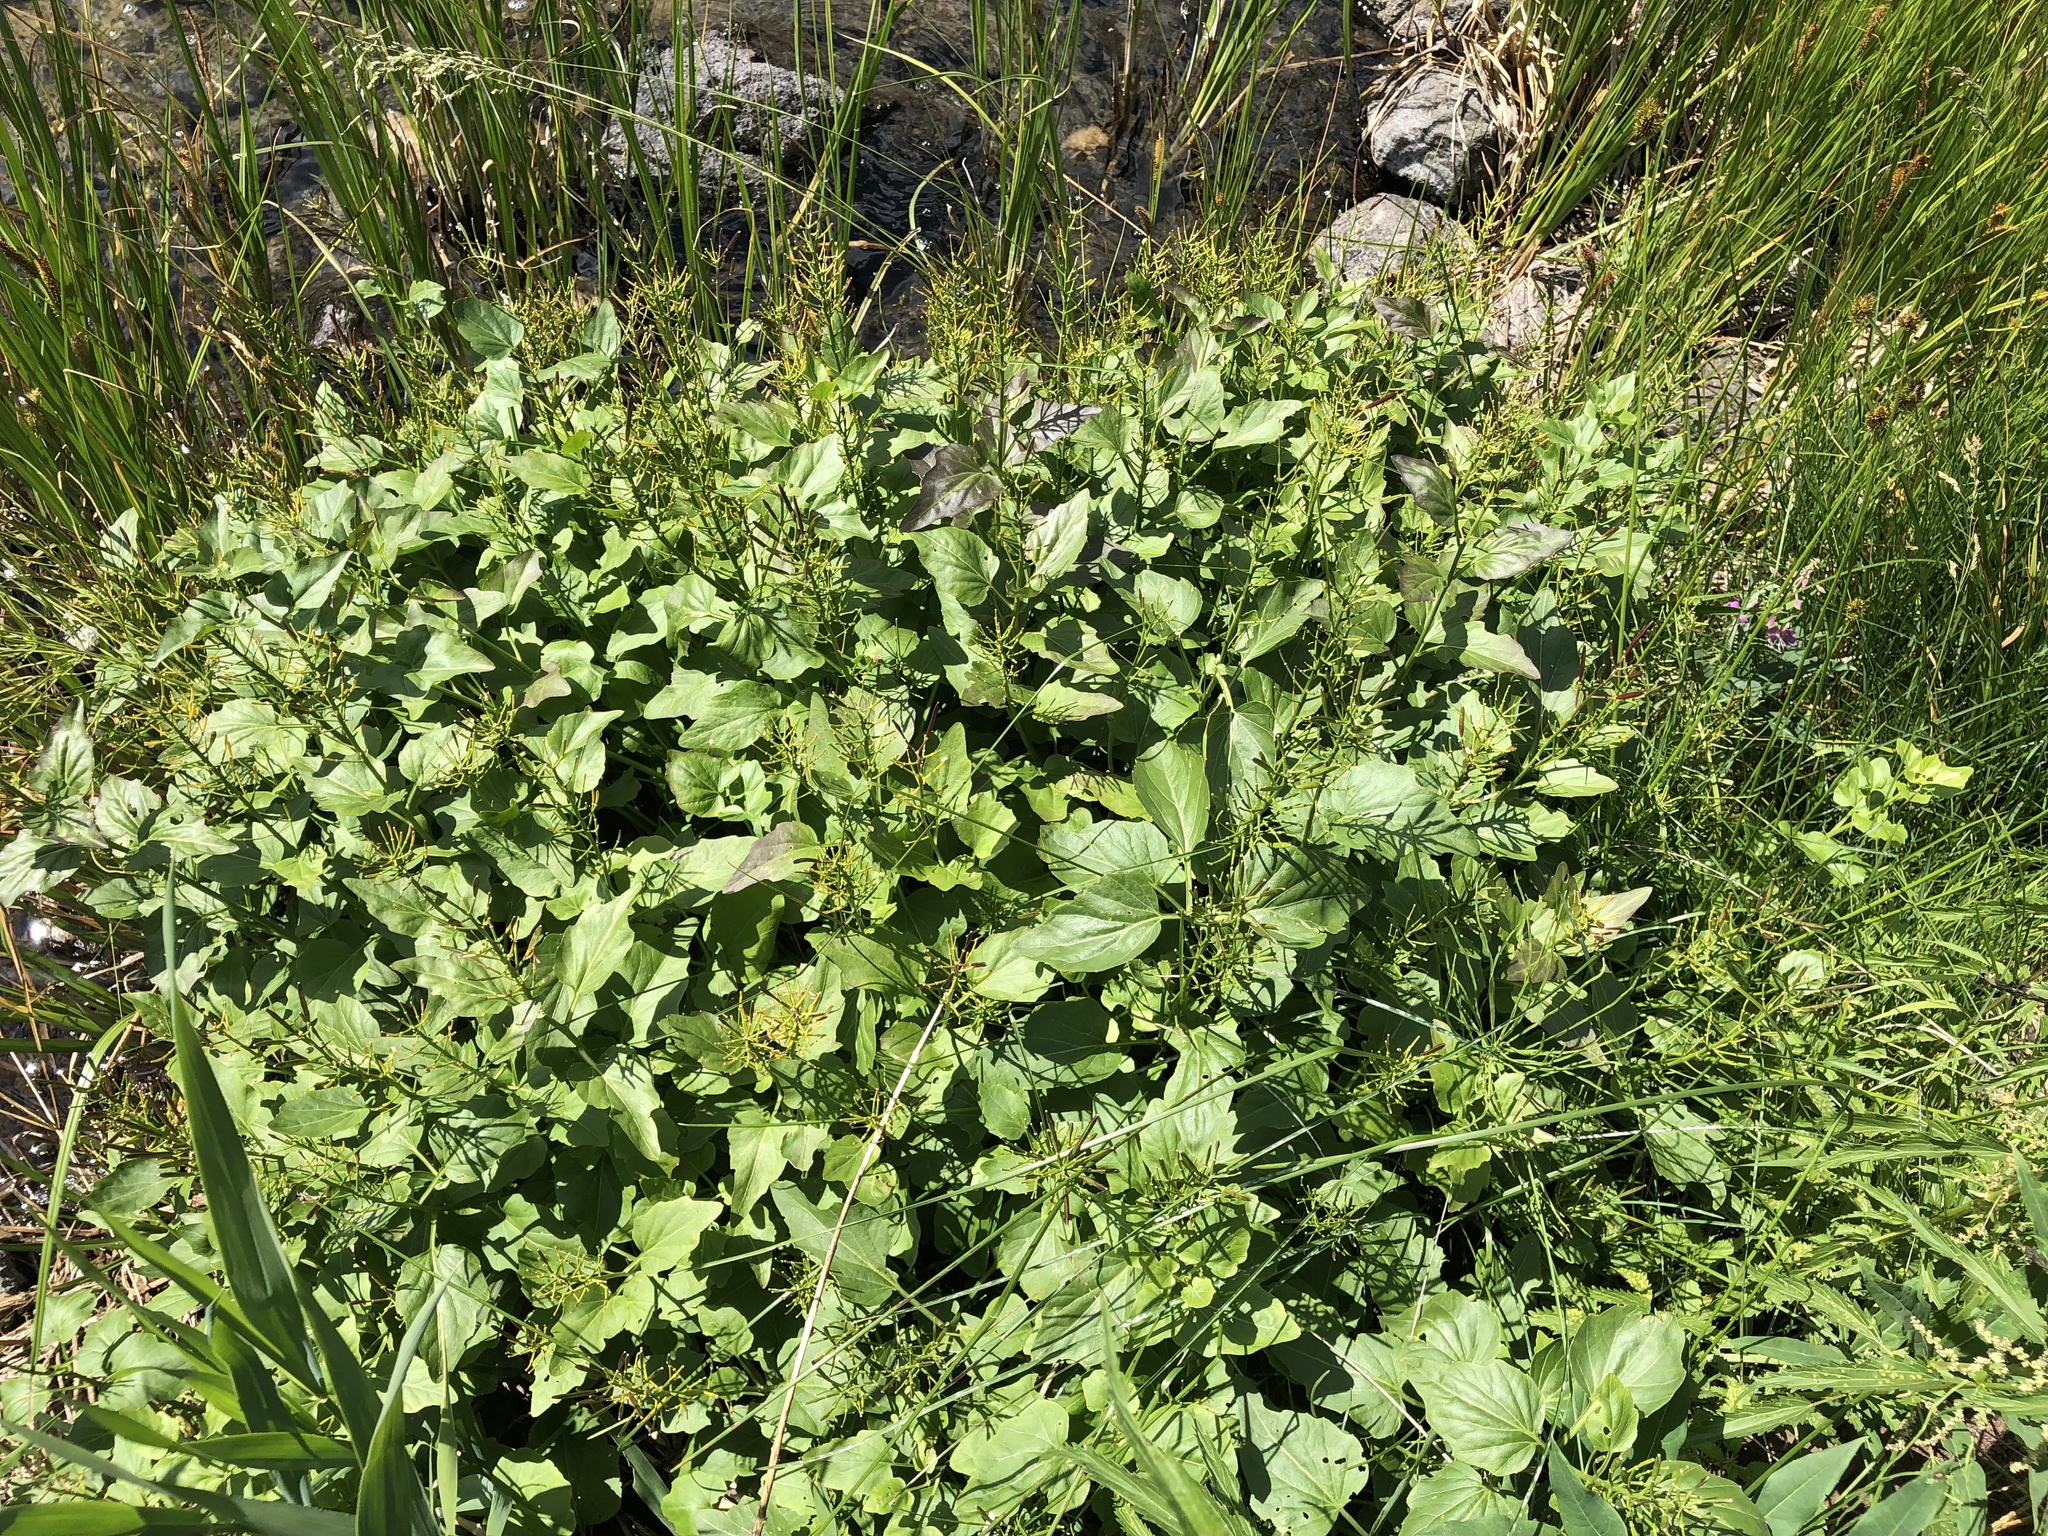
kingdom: Plantae
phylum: Tracheophyta
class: Magnoliopsida
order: Brassicales
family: Brassicaceae
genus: Cardamine
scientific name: Cardamine cordifolia
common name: Heart-leaf bittercress
